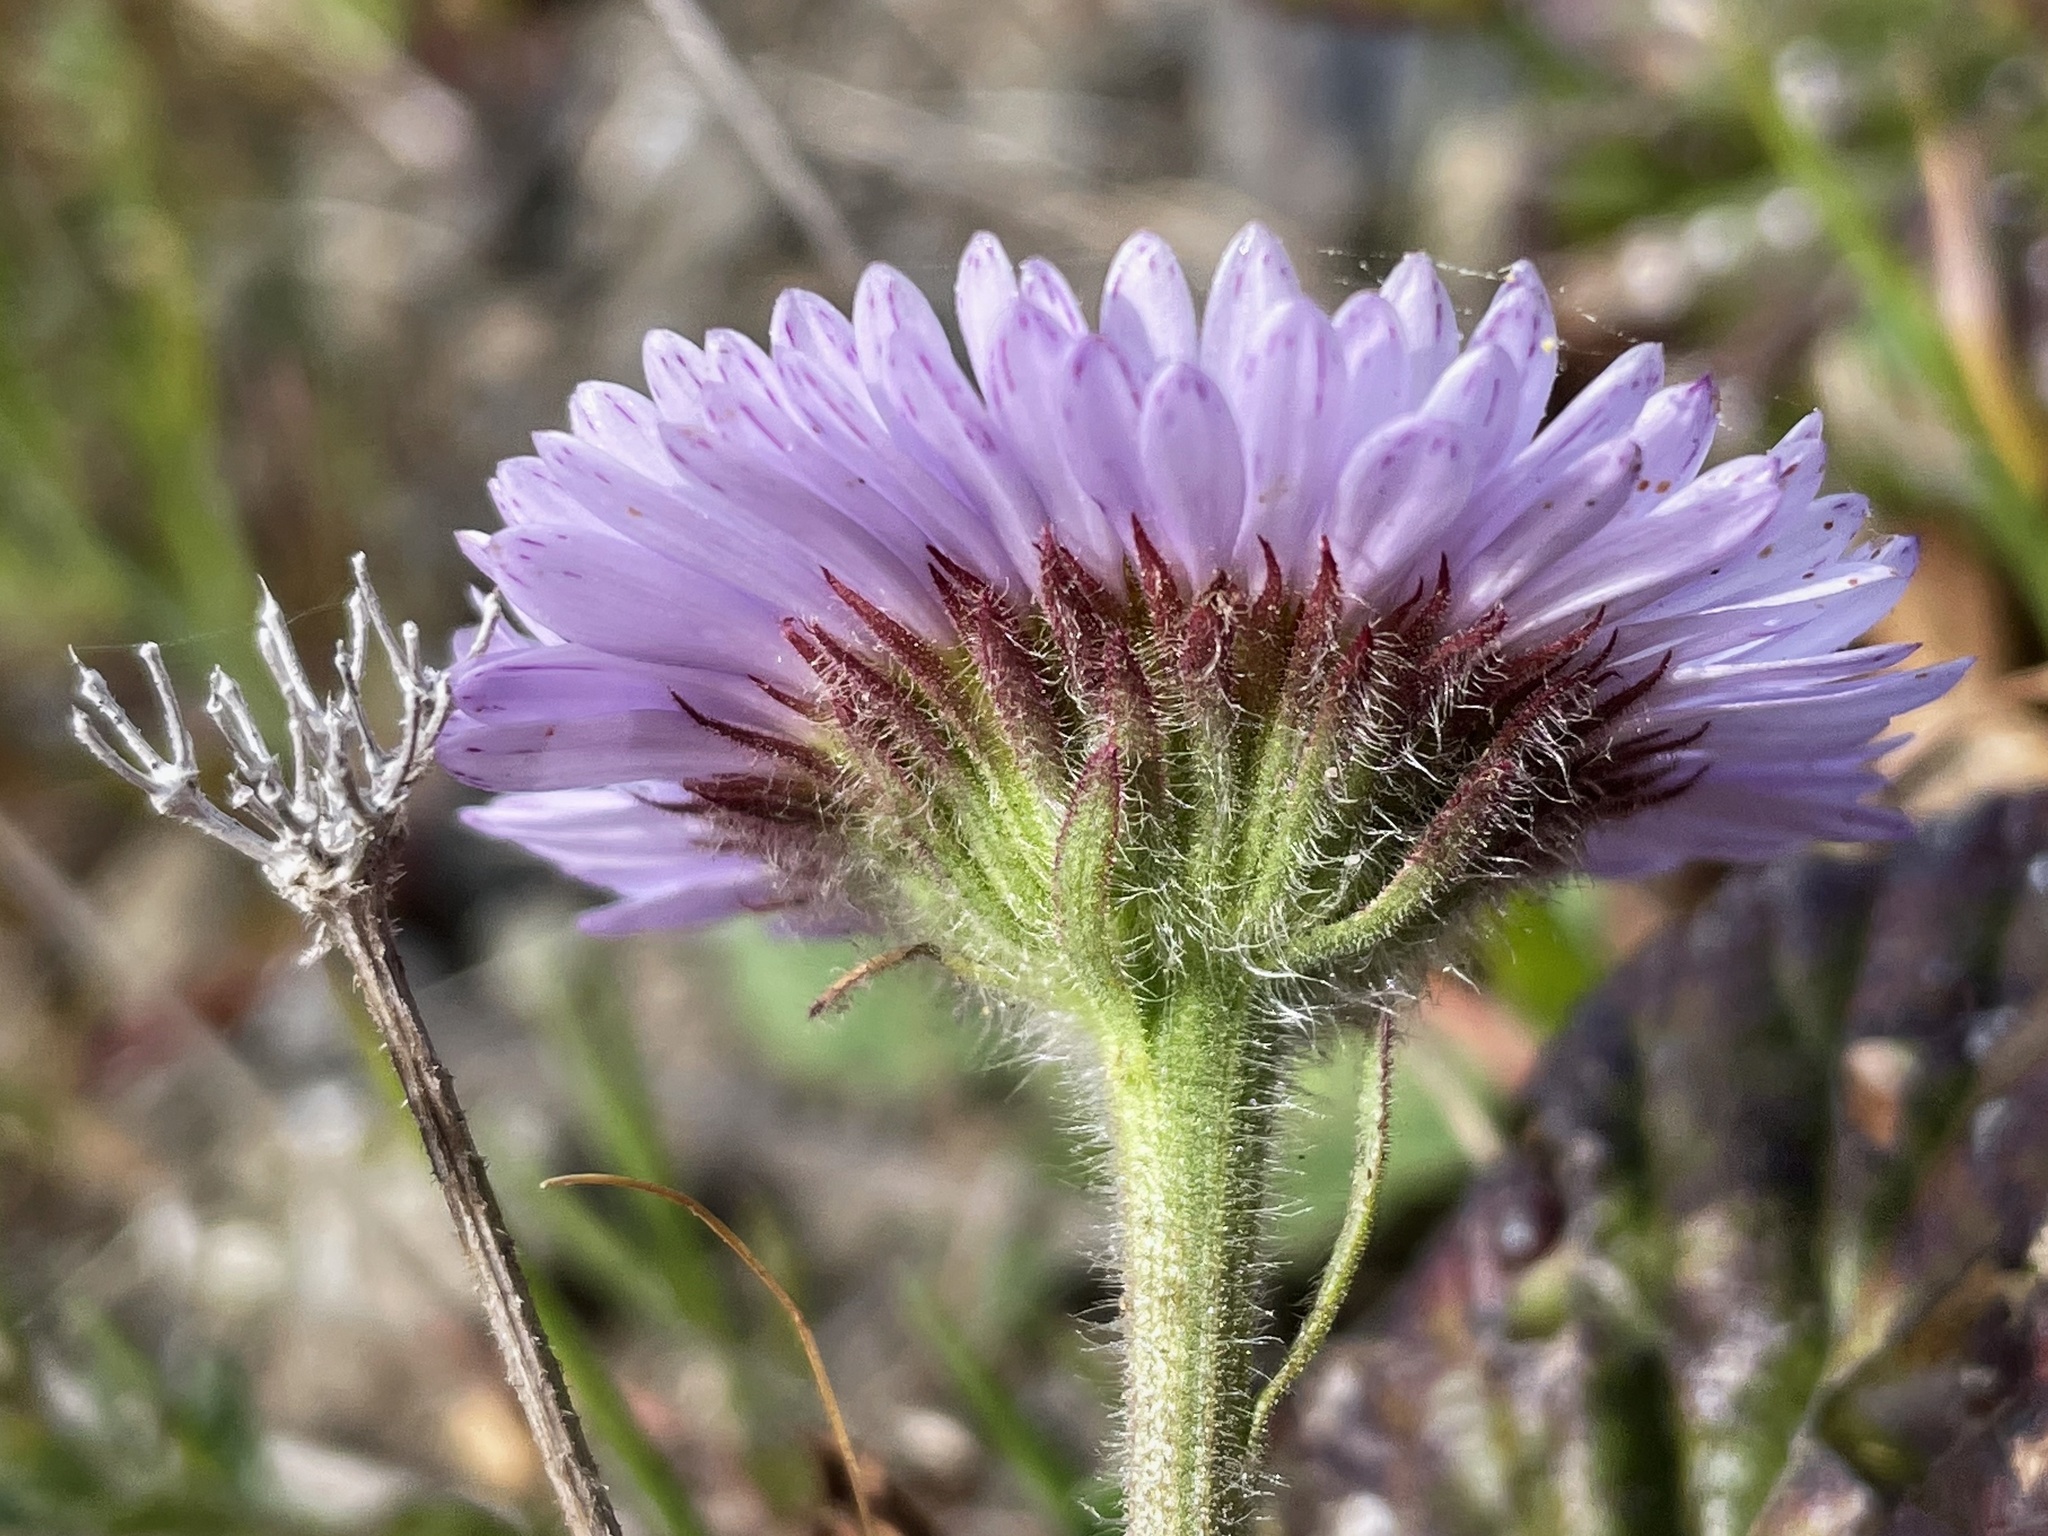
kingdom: Plantae
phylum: Tracheophyta
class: Magnoliopsida
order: Asterales
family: Asteraceae
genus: Erigeron
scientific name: Erigeron glaucus
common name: Seaside daisy
